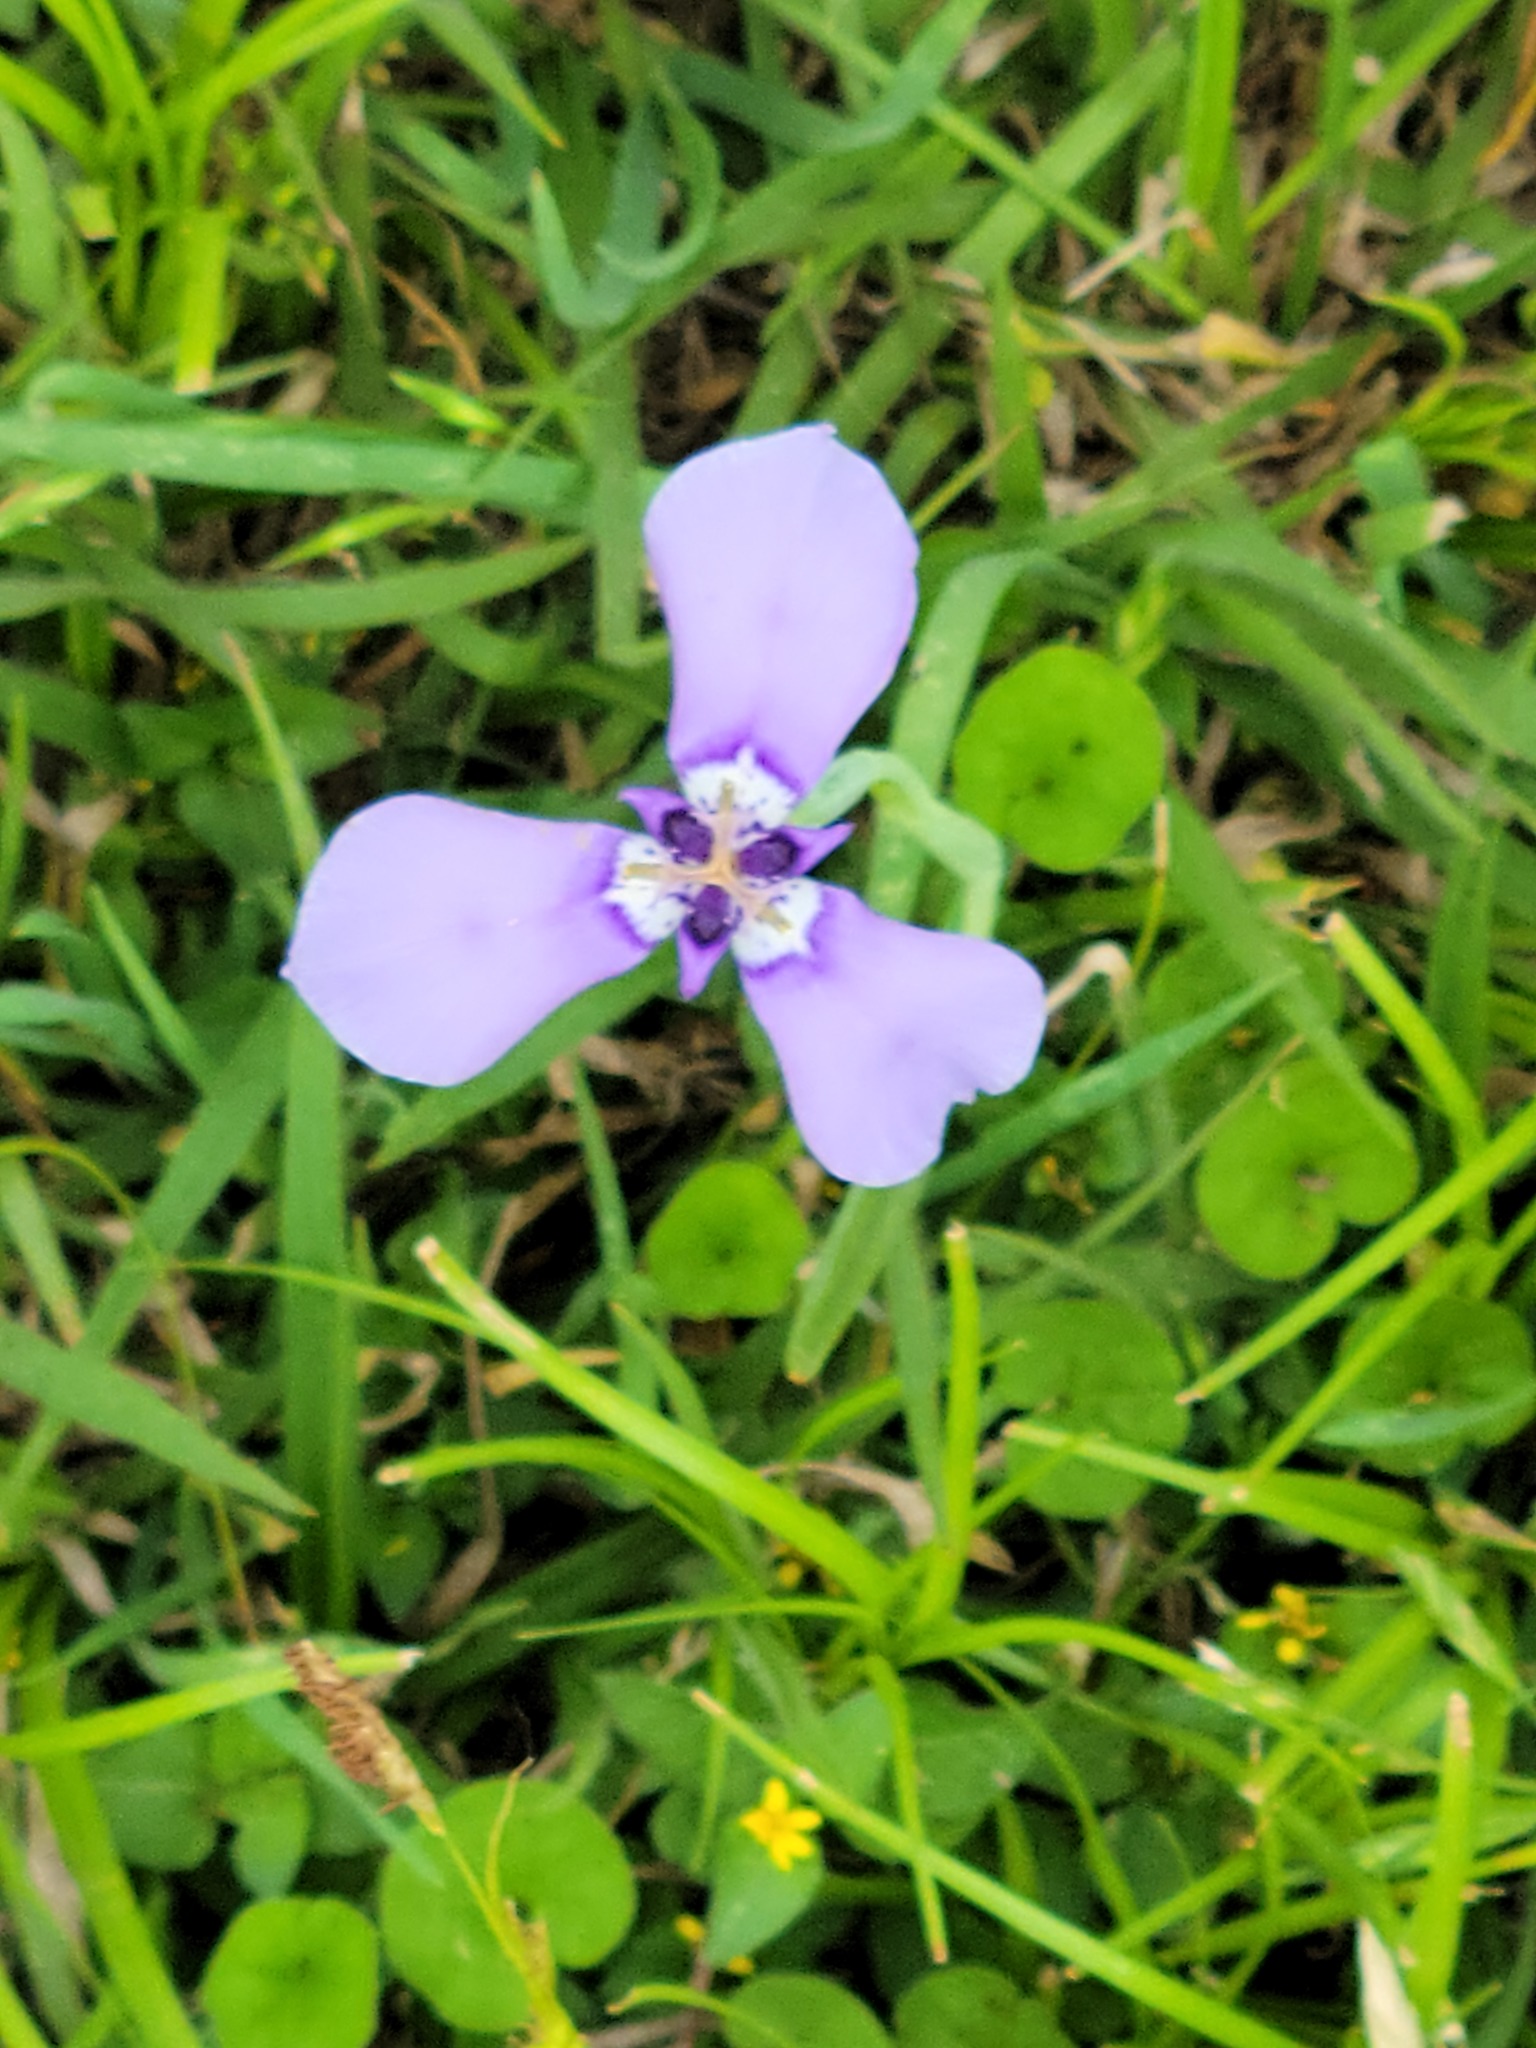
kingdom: Plantae
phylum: Tracheophyta
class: Liliopsida
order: Asparagales
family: Iridaceae
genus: Herbertia
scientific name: Herbertia lahue
